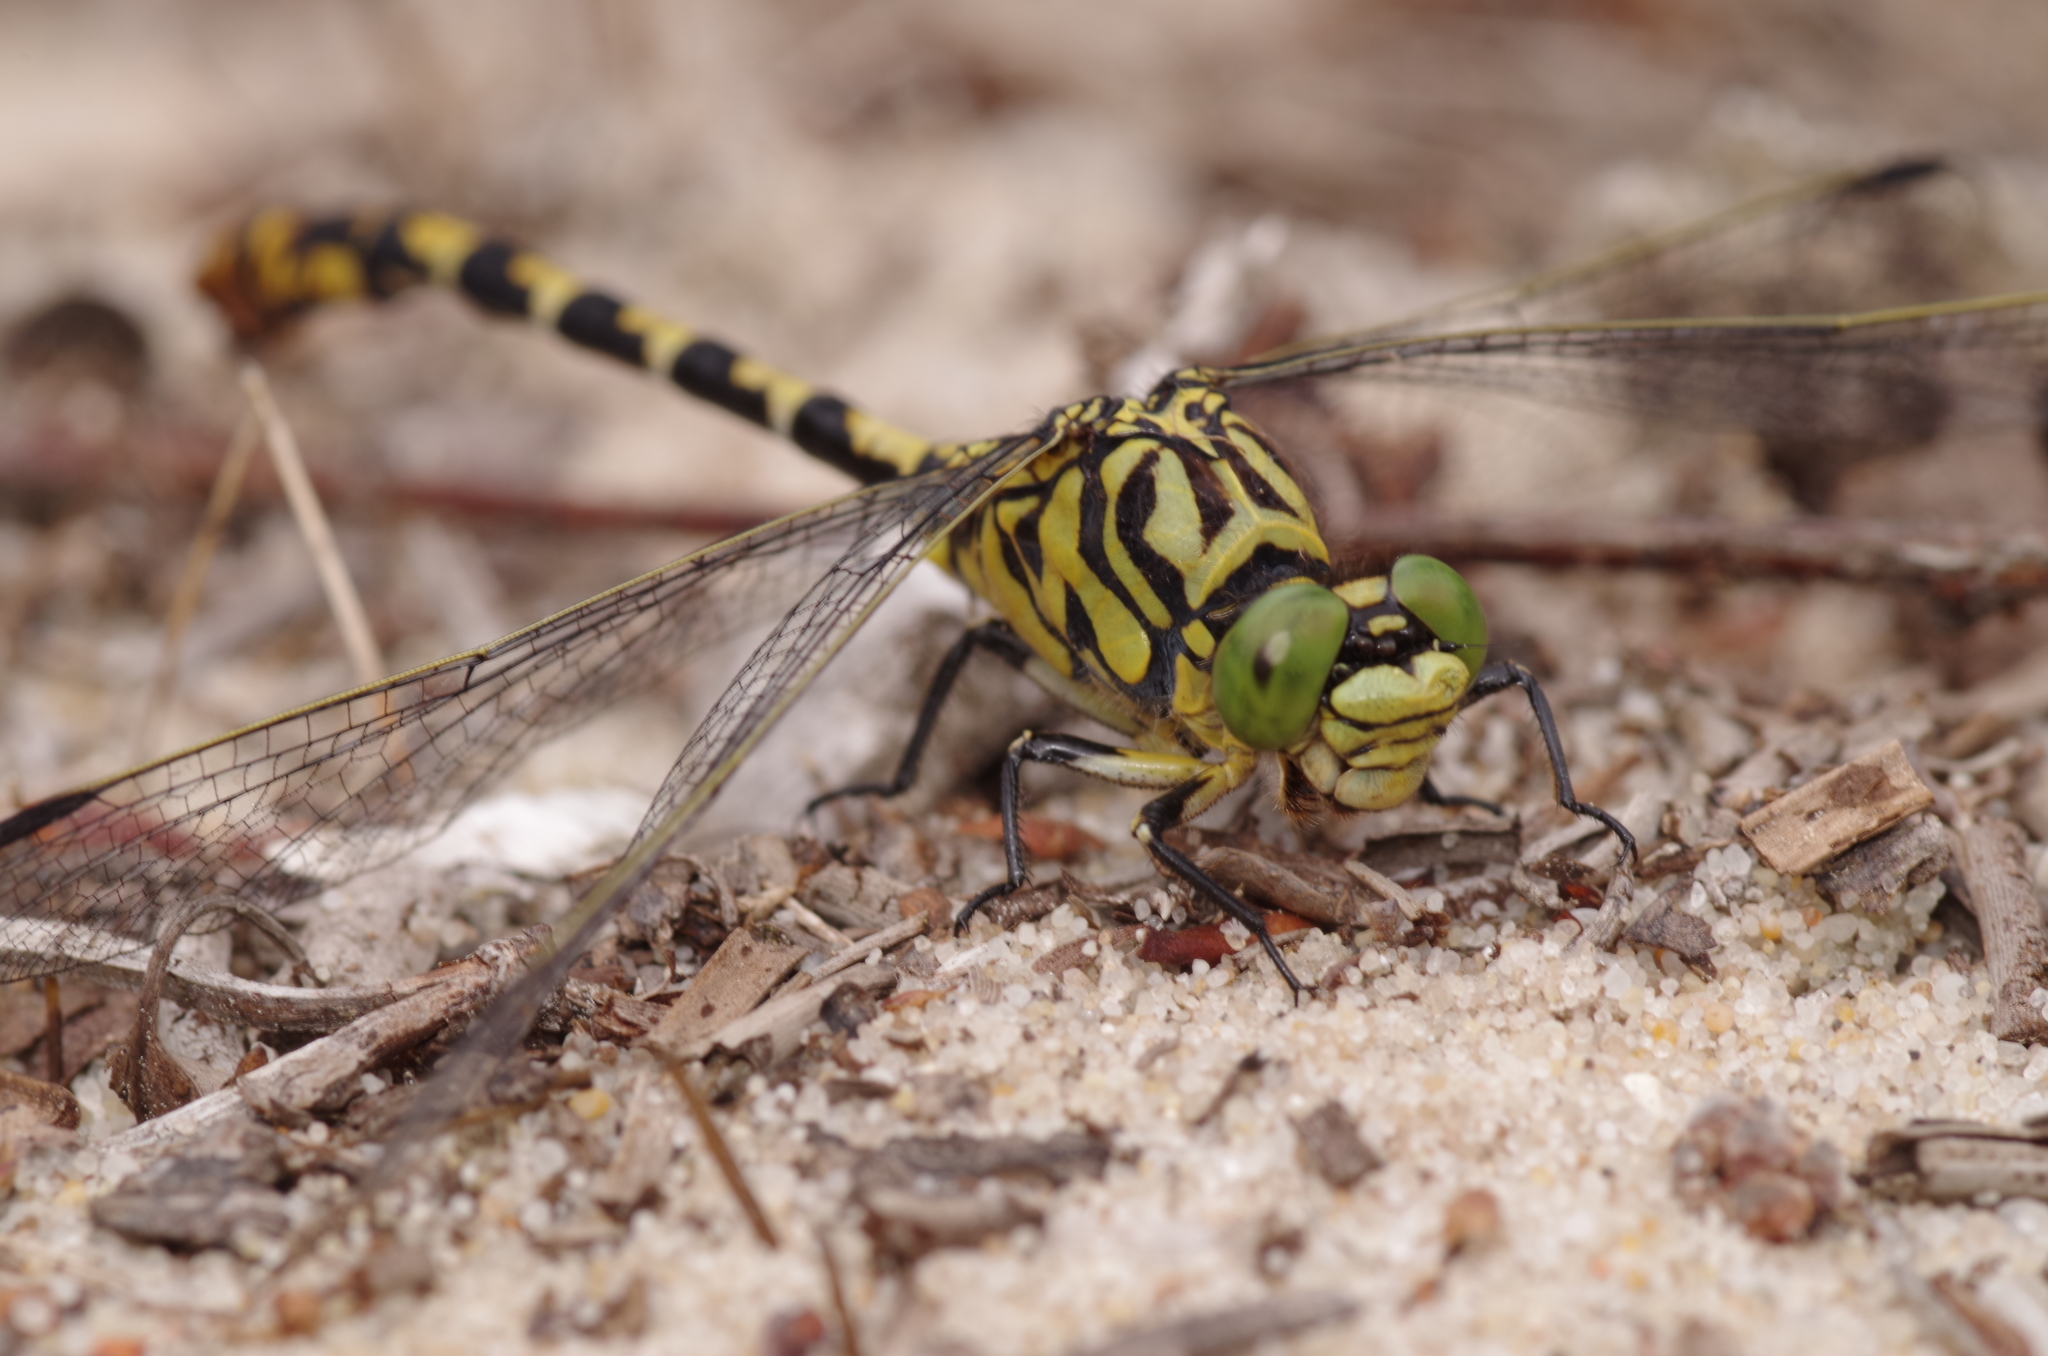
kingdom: Animalia
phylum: Arthropoda
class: Insecta
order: Odonata
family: Gomphidae
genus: Onychogomphus
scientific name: Onychogomphus forcipatus
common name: Small pincertail
